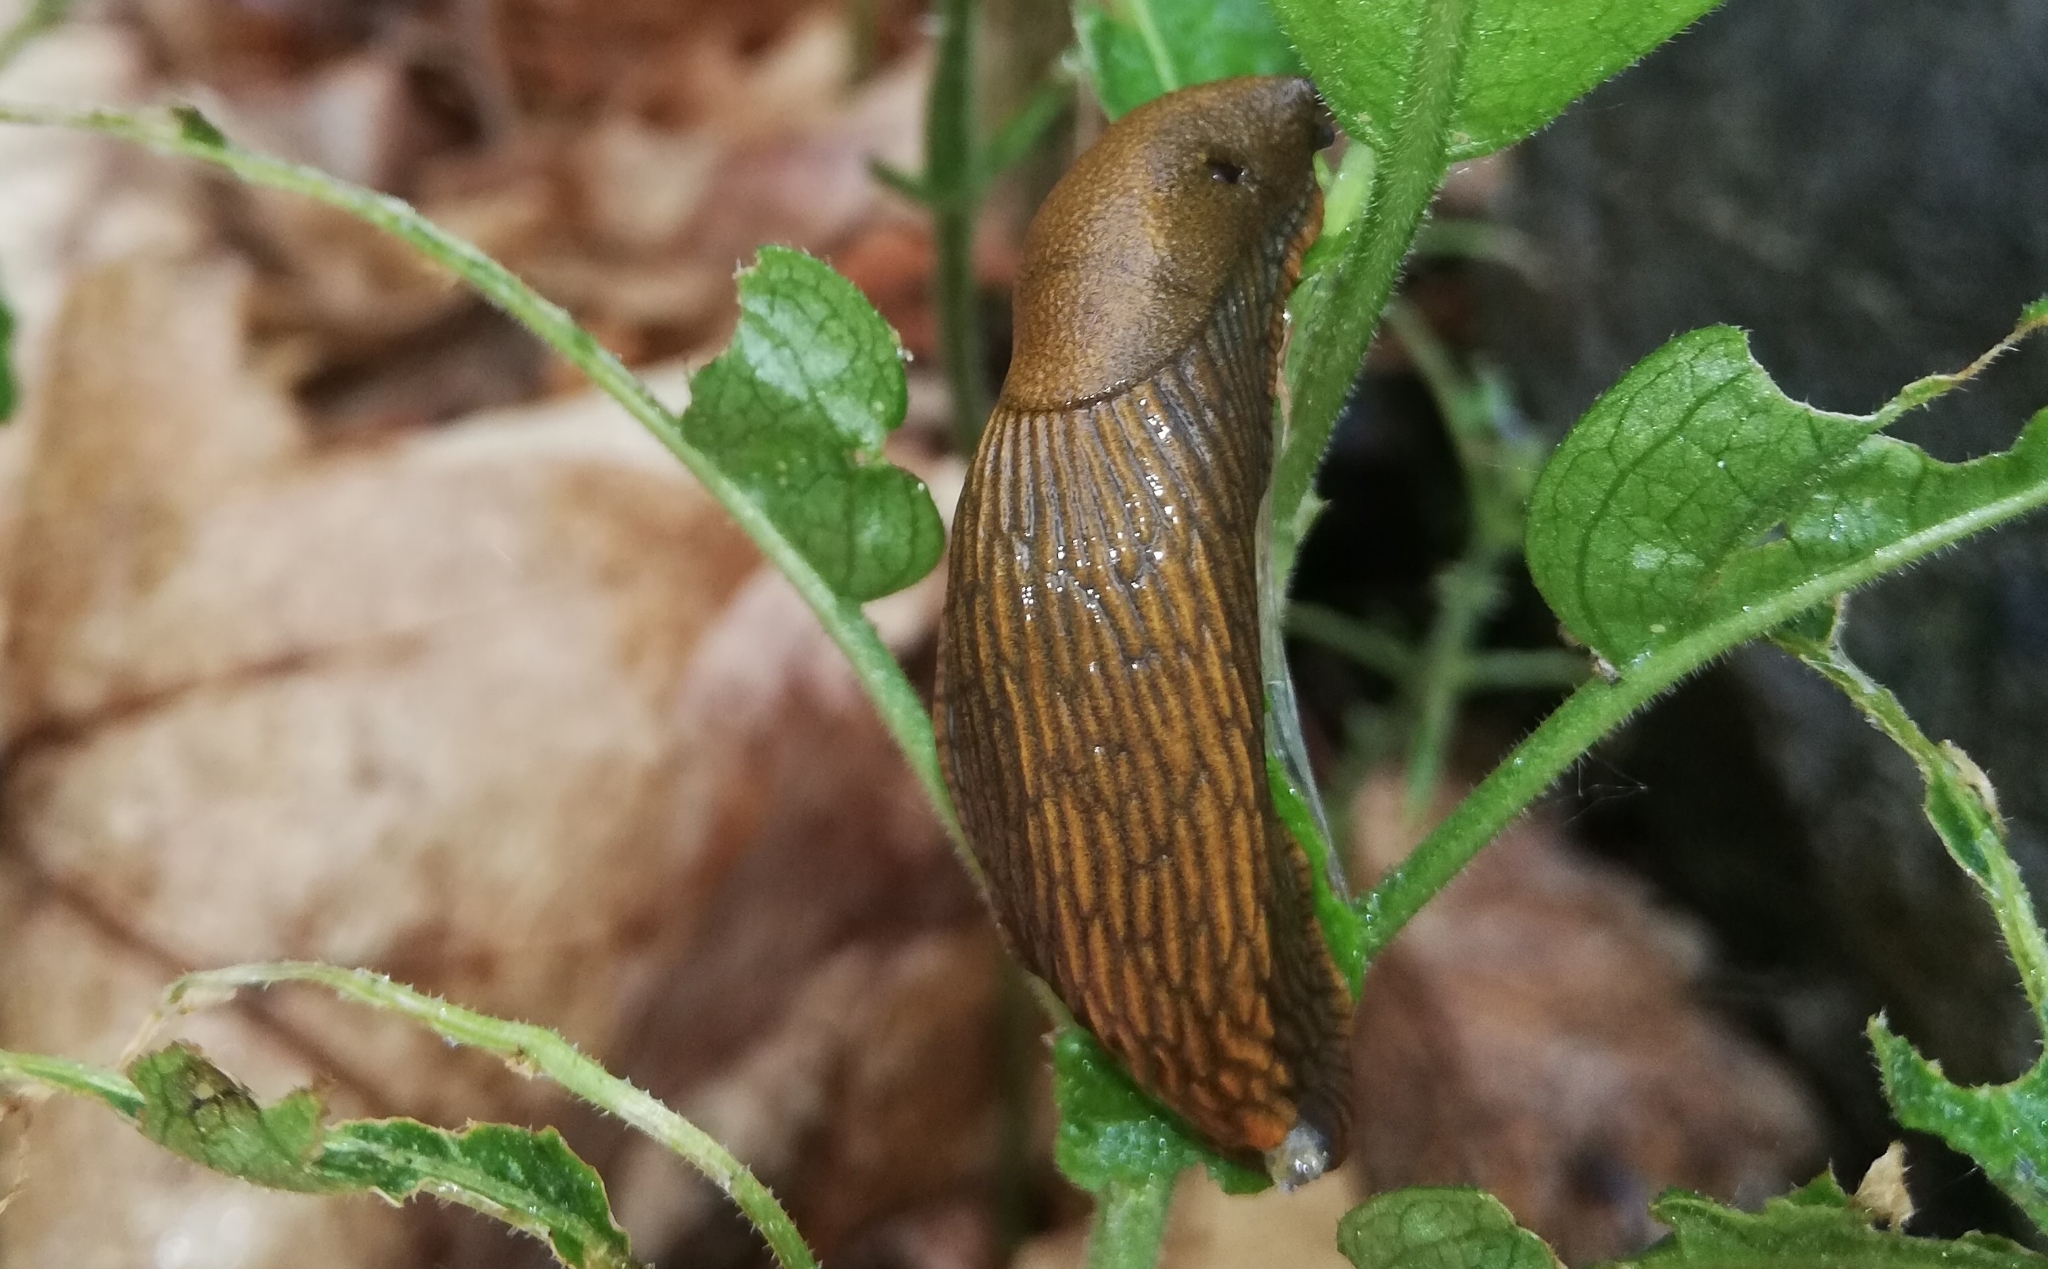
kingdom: Animalia
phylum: Mollusca
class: Gastropoda
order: Stylommatophora
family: Arionidae
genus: Arion
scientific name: Arion vulgaris
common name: Lusitanian slug
